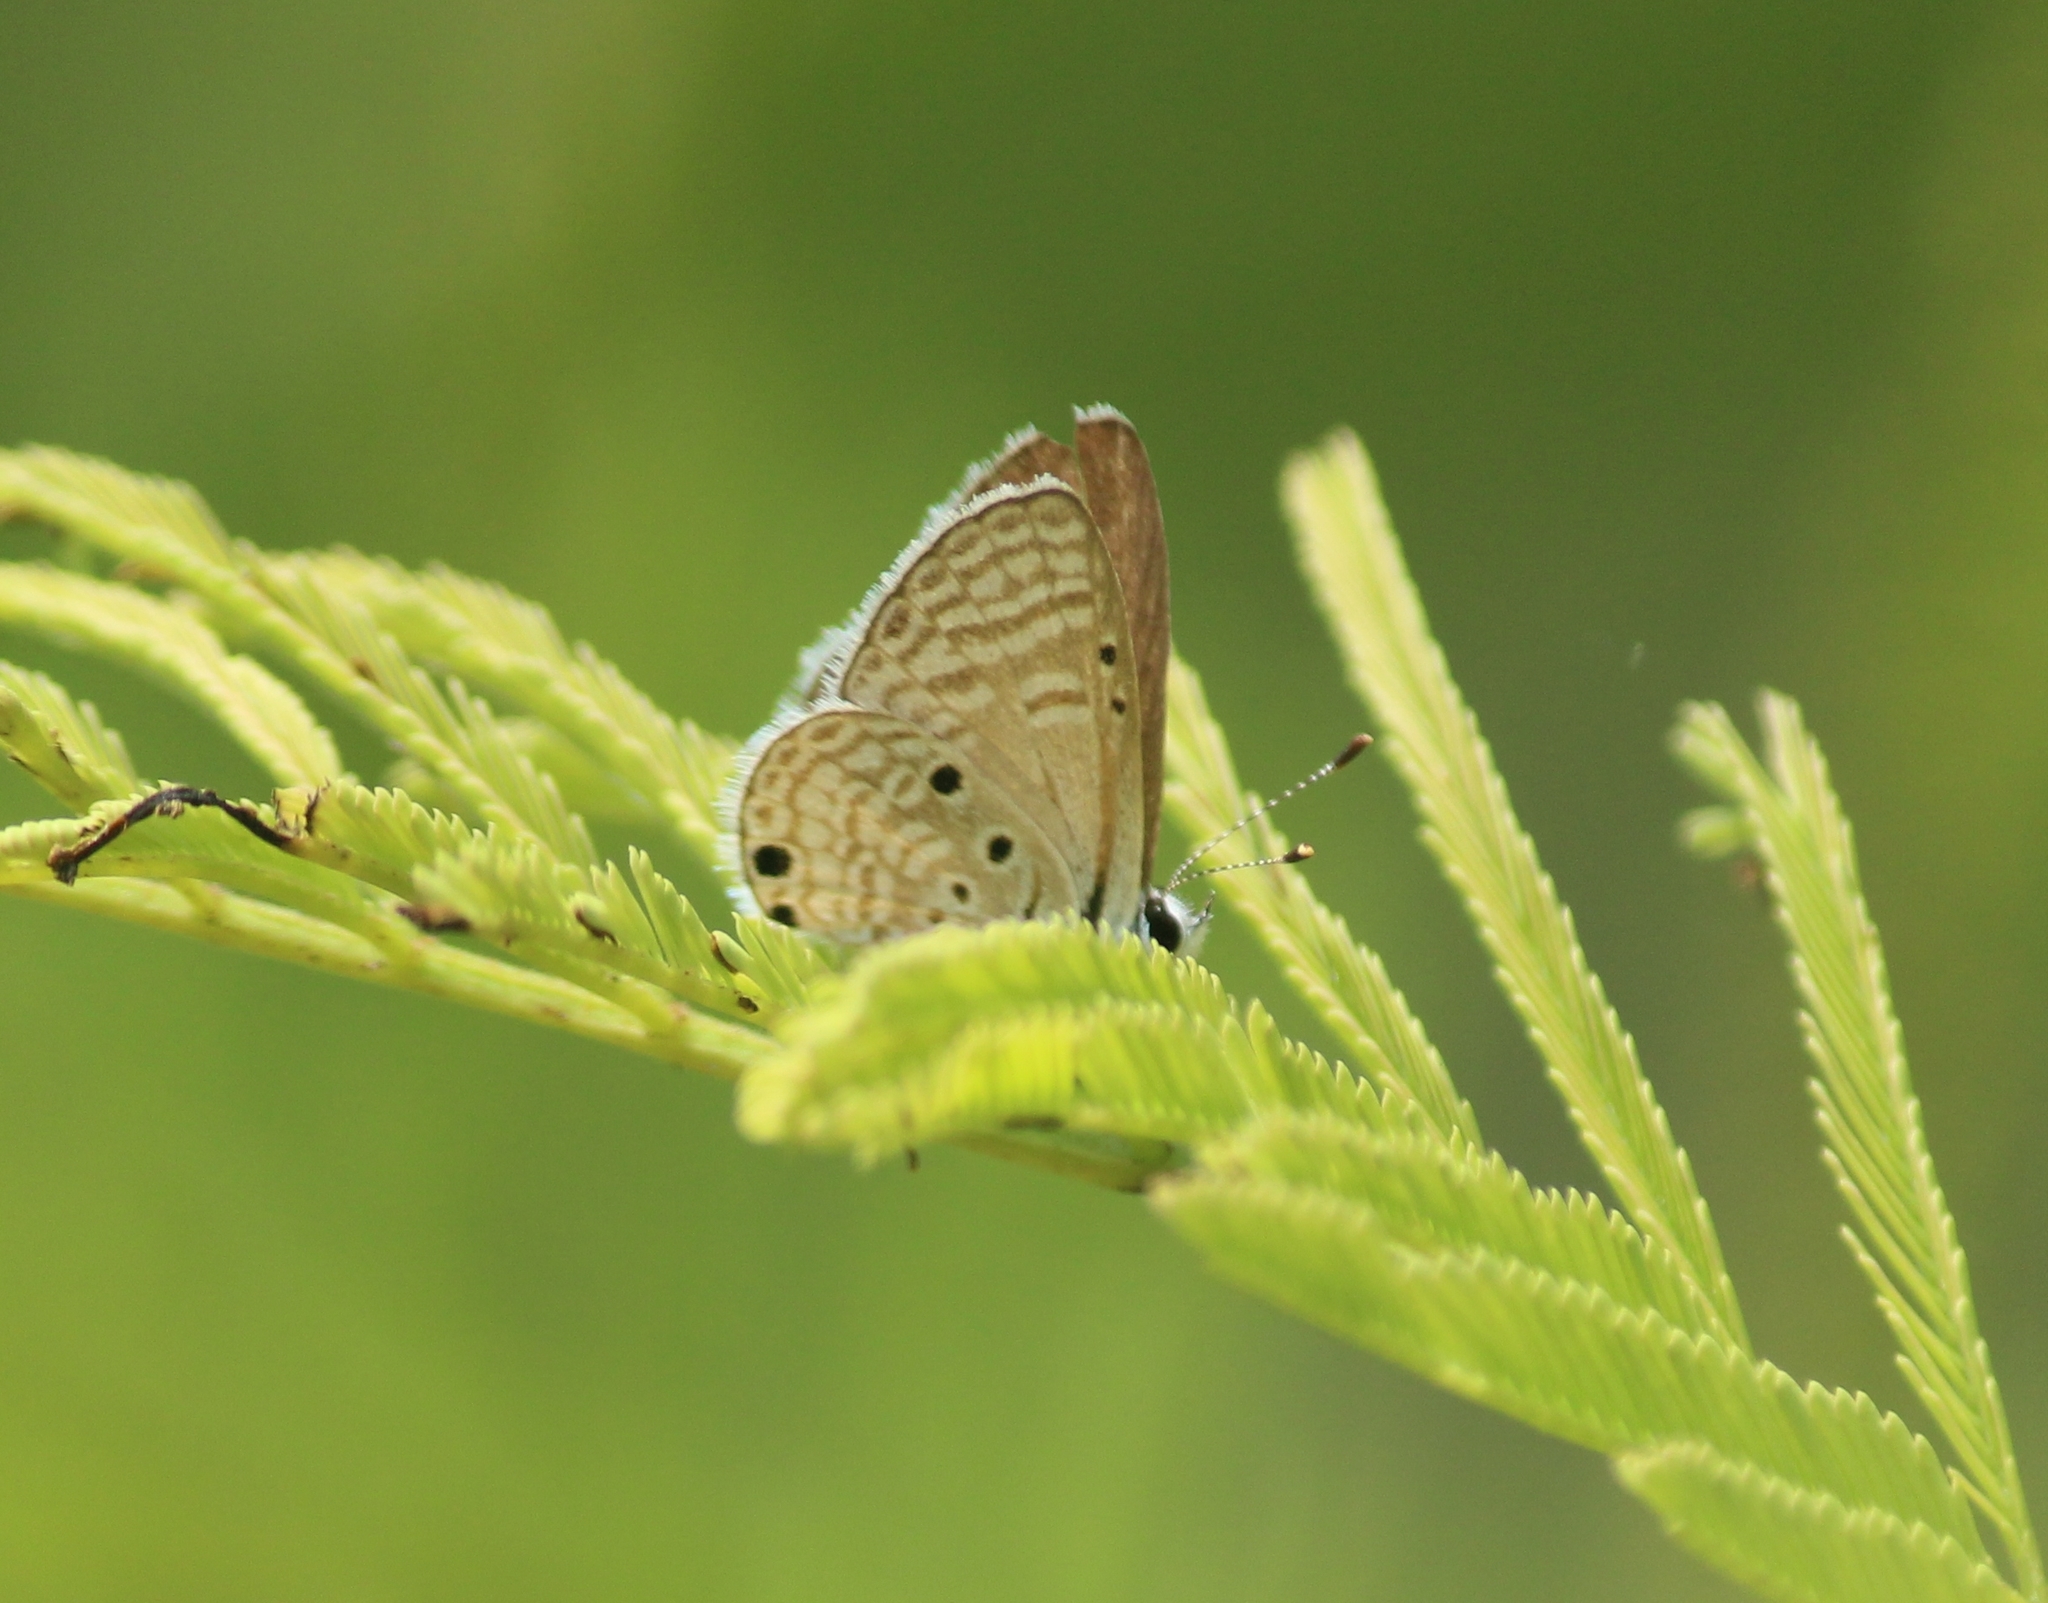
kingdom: Animalia
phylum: Arthropoda
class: Insecta
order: Lepidoptera
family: Lycaenidae
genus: Azanus
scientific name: Azanus ubaldus
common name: Desert babul blue
